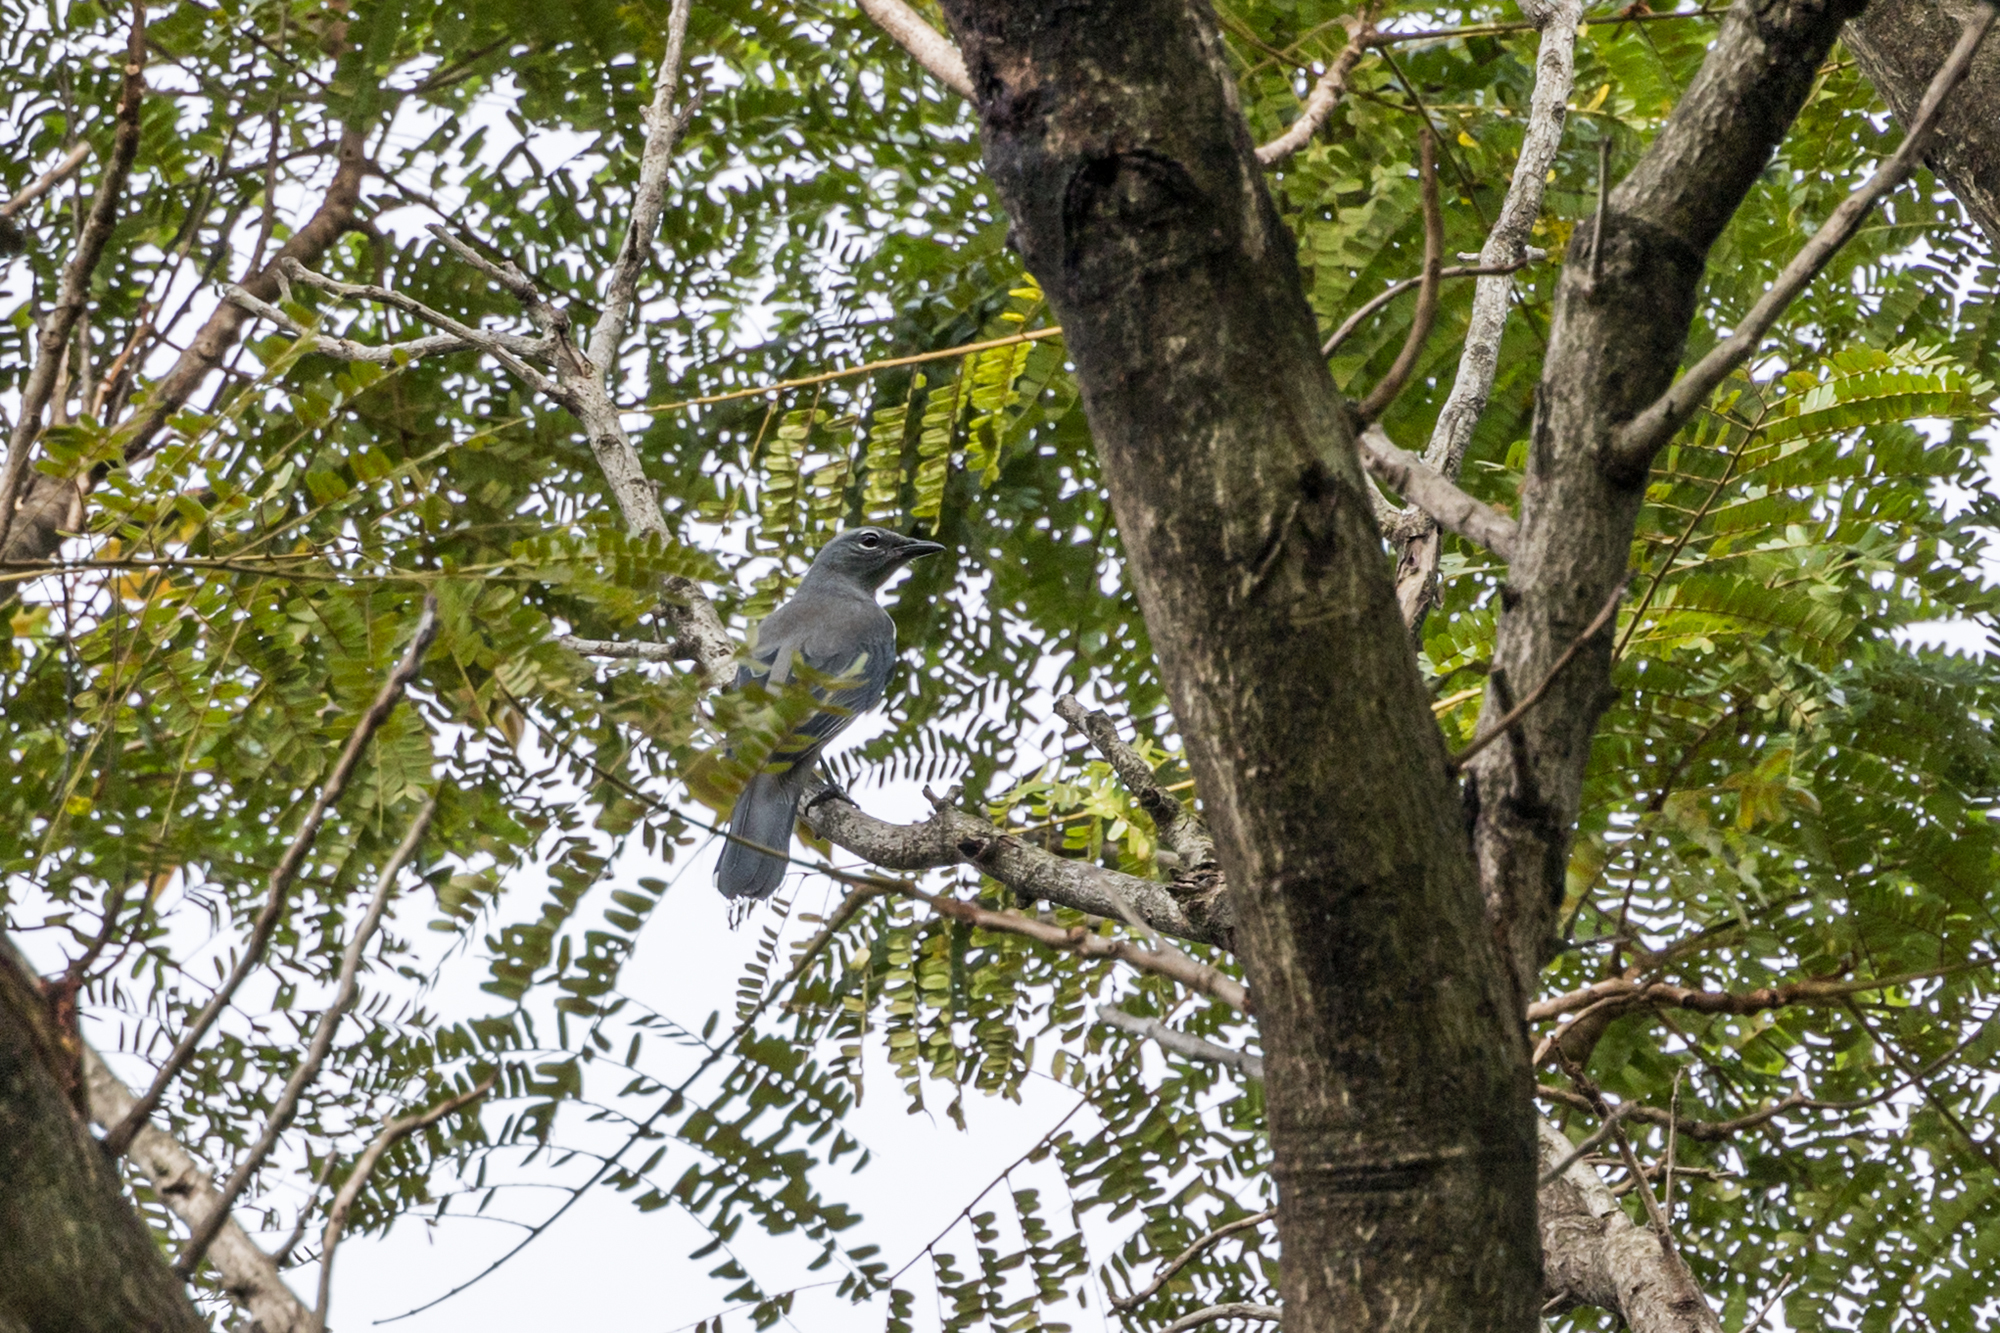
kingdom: Animalia
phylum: Chordata
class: Aves
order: Passeriformes
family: Campephagidae
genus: Coracina
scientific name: Coracina melaschistos
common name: Black-winged cuckooshrike
